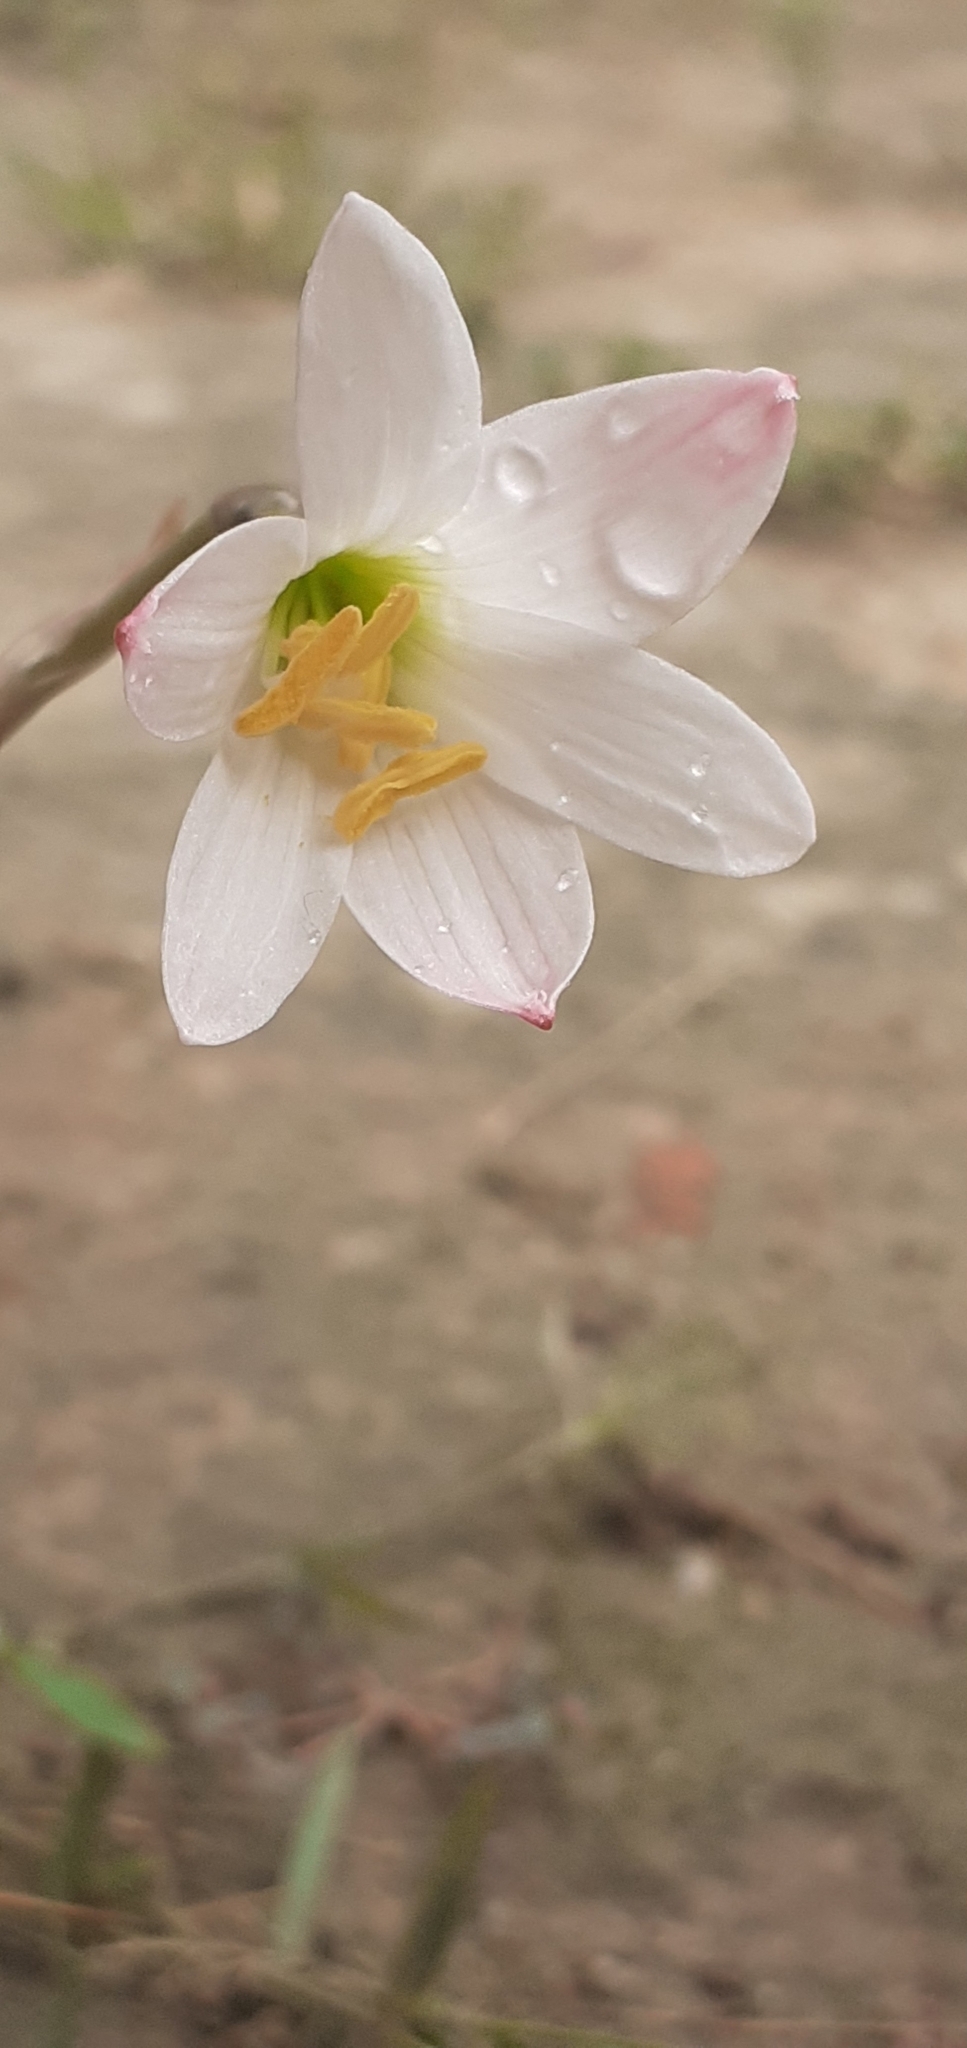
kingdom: Plantae
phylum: Tracheophyta
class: Liliopsida
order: Asparagales
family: Amaryllidaceae
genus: Zephyranthes
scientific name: Zephyranthes cearensis
